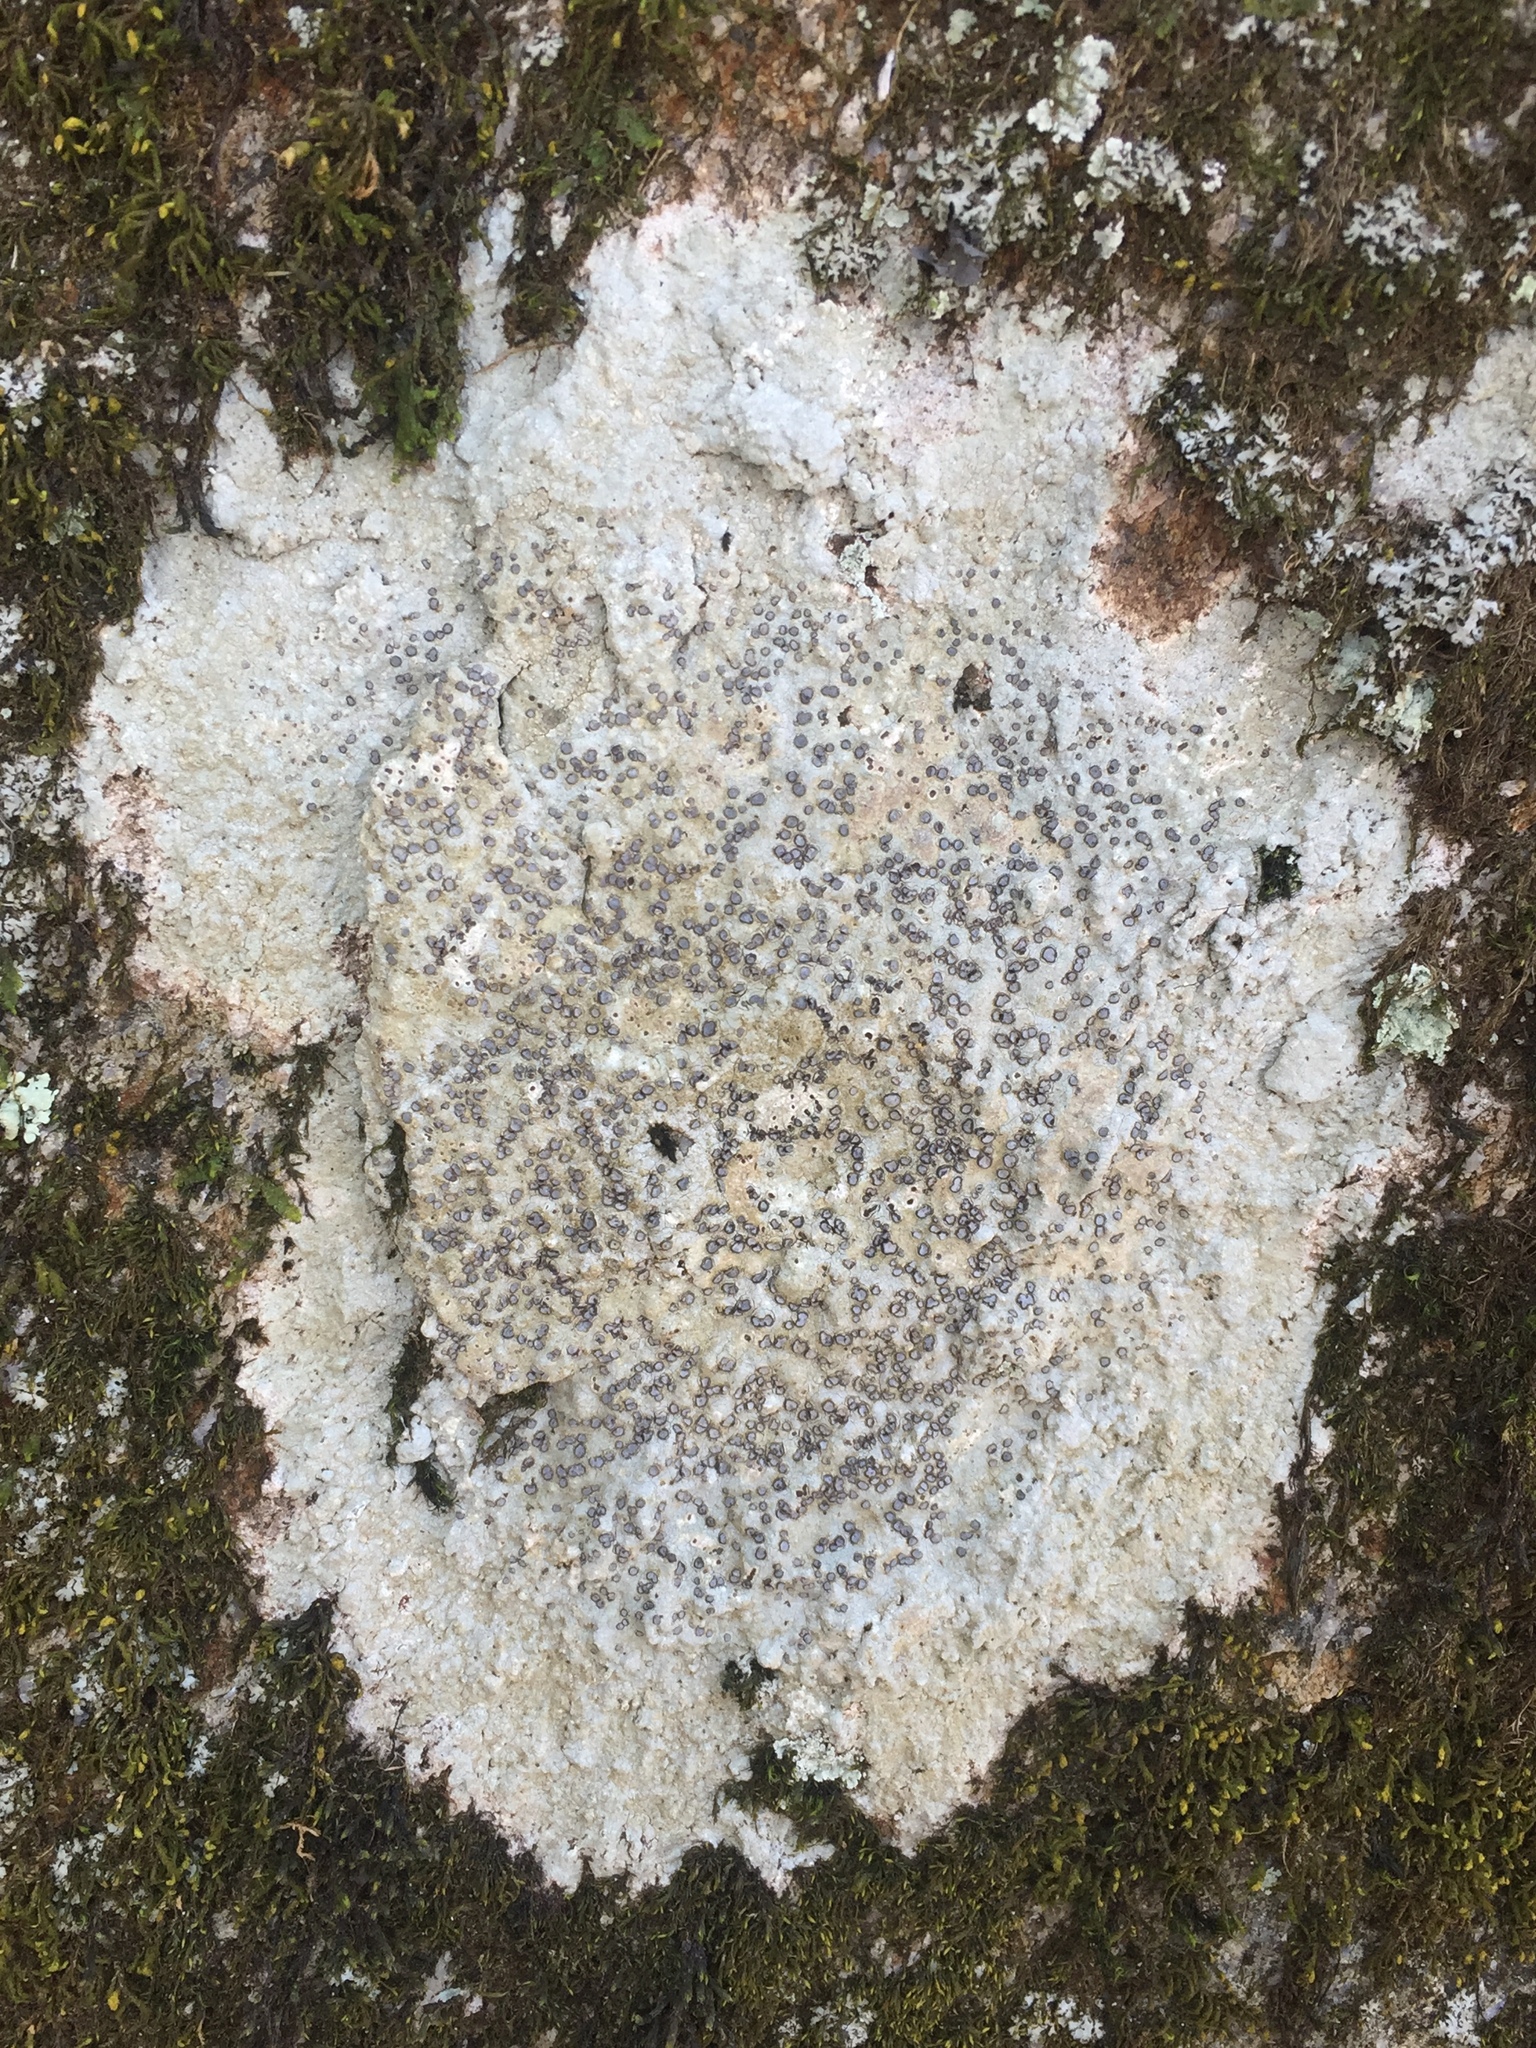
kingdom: Fungi
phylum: Ascomycota
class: Lecanoromycetes
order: Lecideales
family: Lecideaceae
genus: Porpidia
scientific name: Porpidia albocaerulescens
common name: Smokey-eyed boulder lichen
